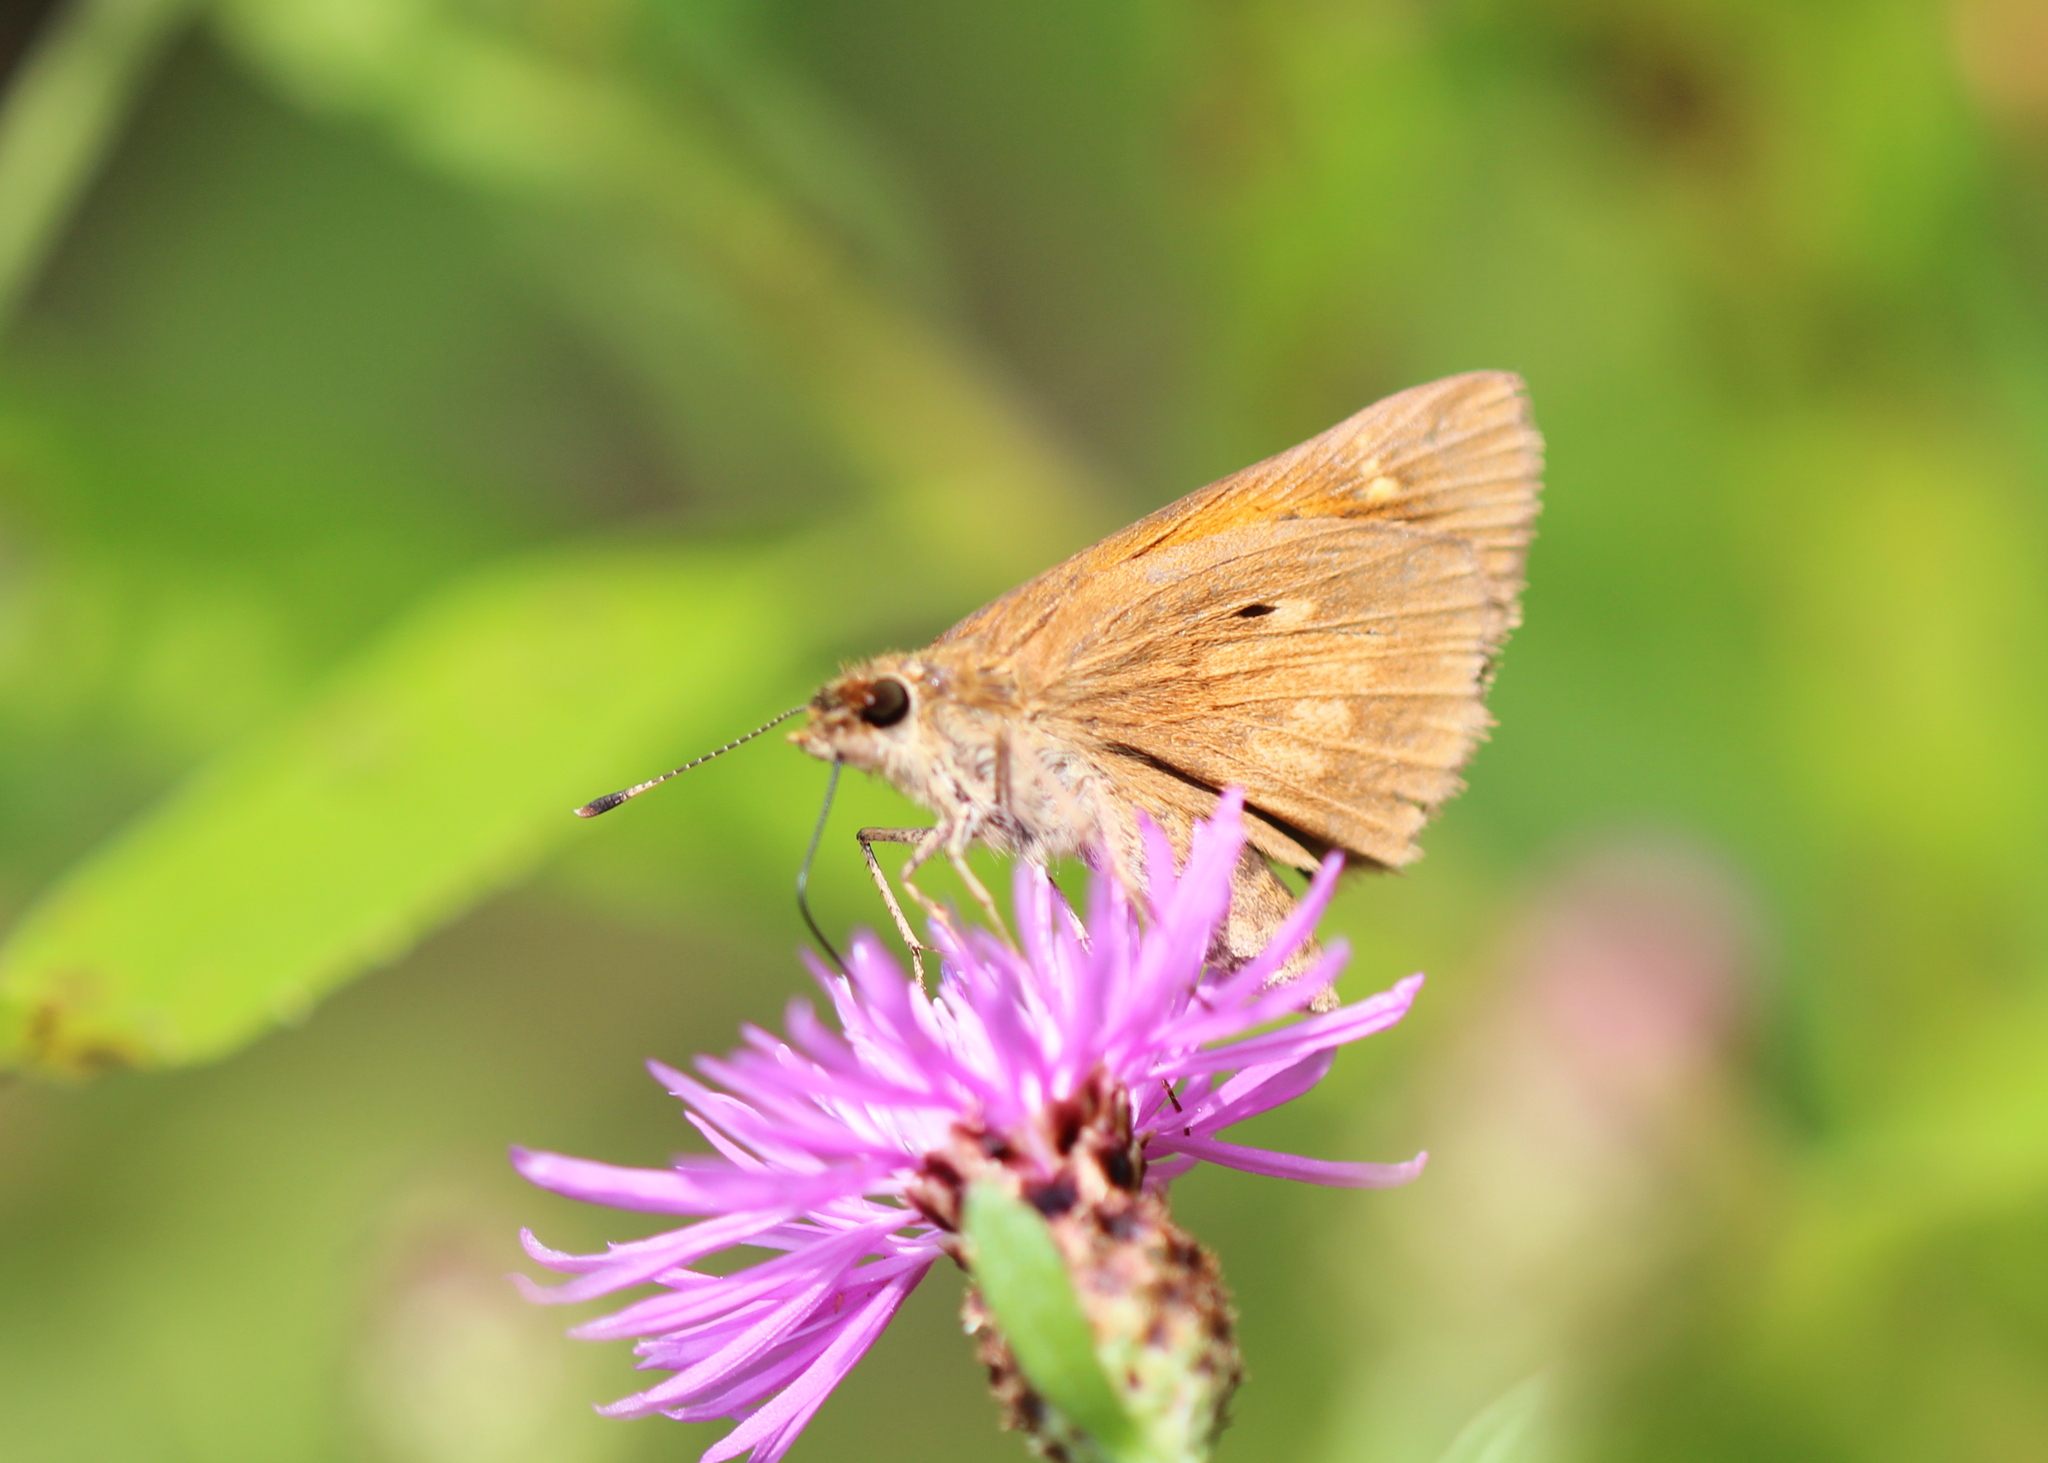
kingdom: Animalia
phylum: Arthropoda
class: Insecta
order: Lepidoptera
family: Hesperiidae
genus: Poanes
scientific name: Poanes viator
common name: Broad-winged skipper
